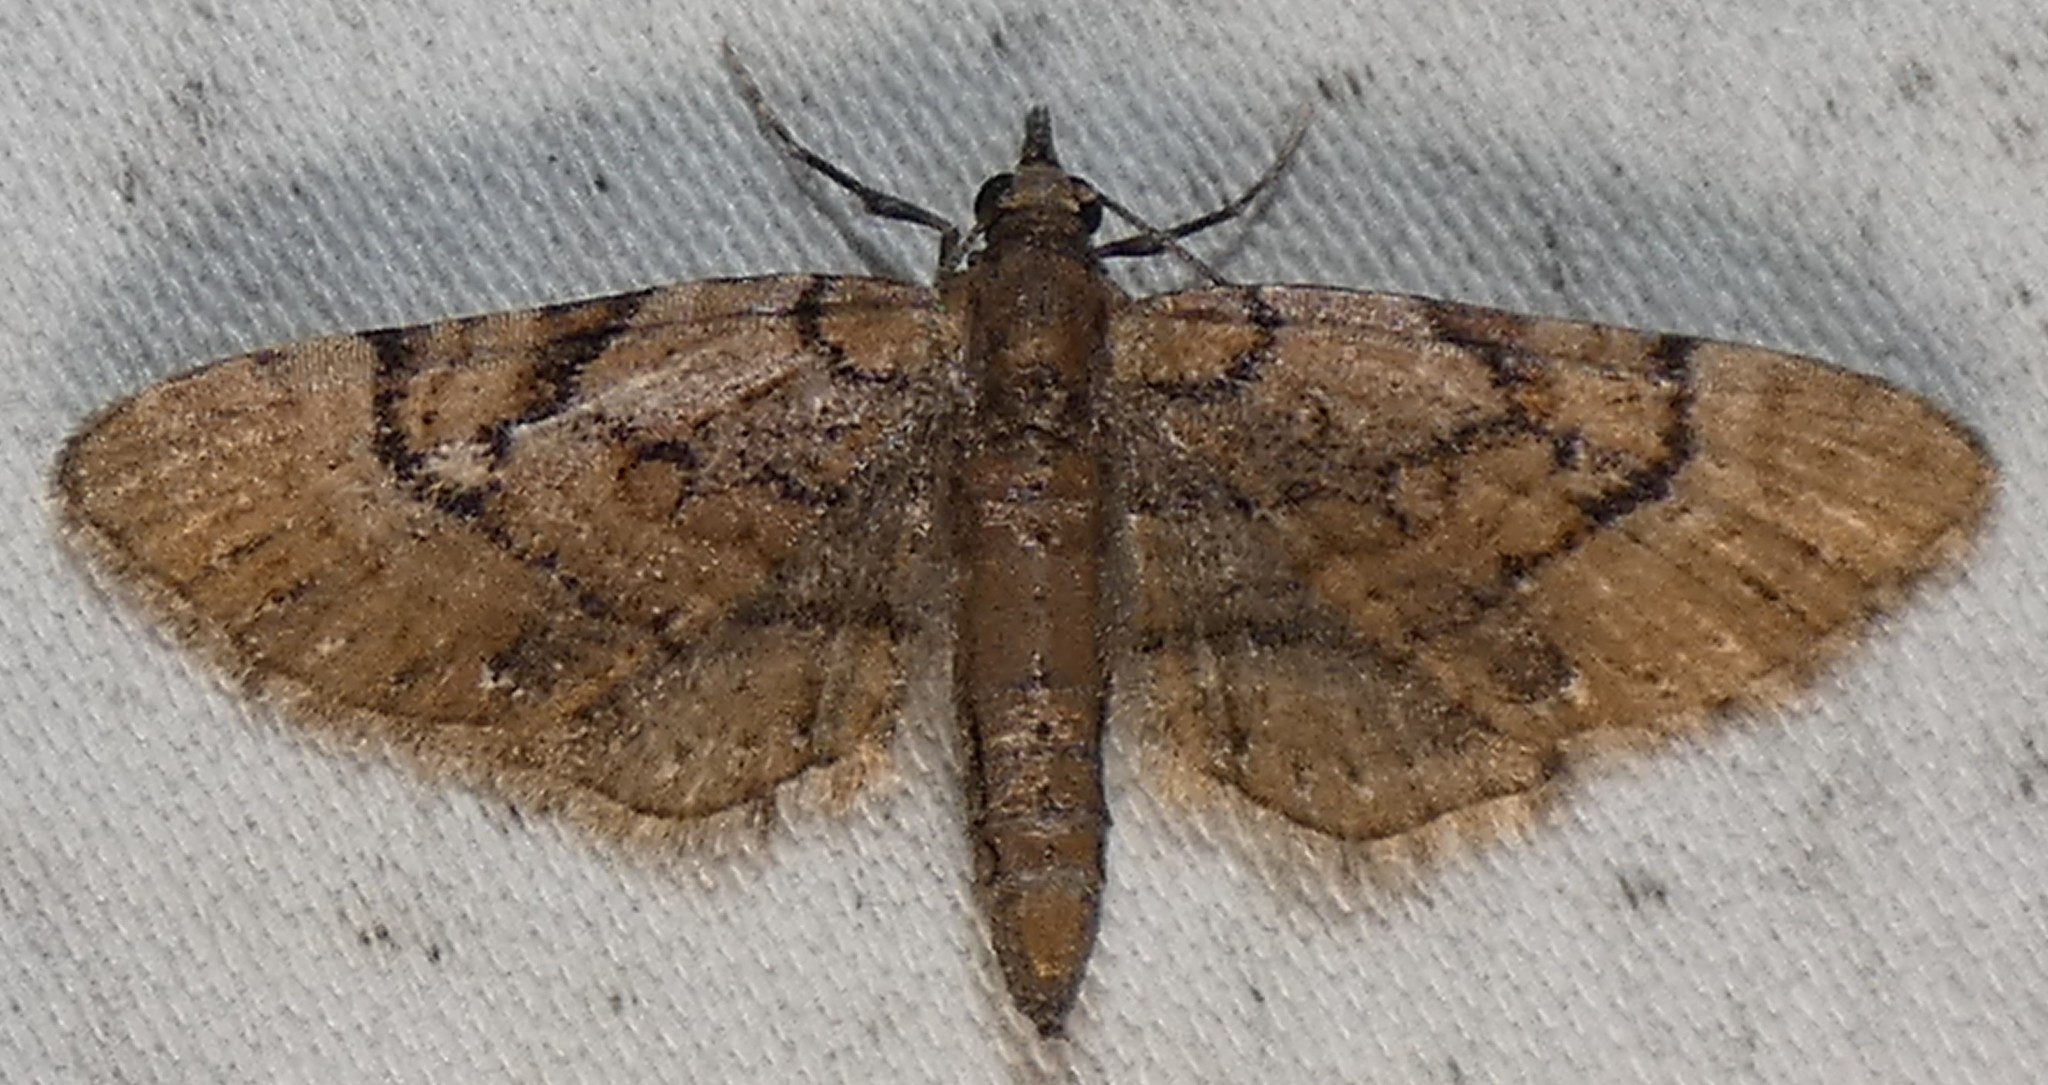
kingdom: Animalia
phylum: Arthropoda
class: Insecta
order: Lepidoptera
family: Geometridae
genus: Eupithecia
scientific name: Eupithecia peckorum
